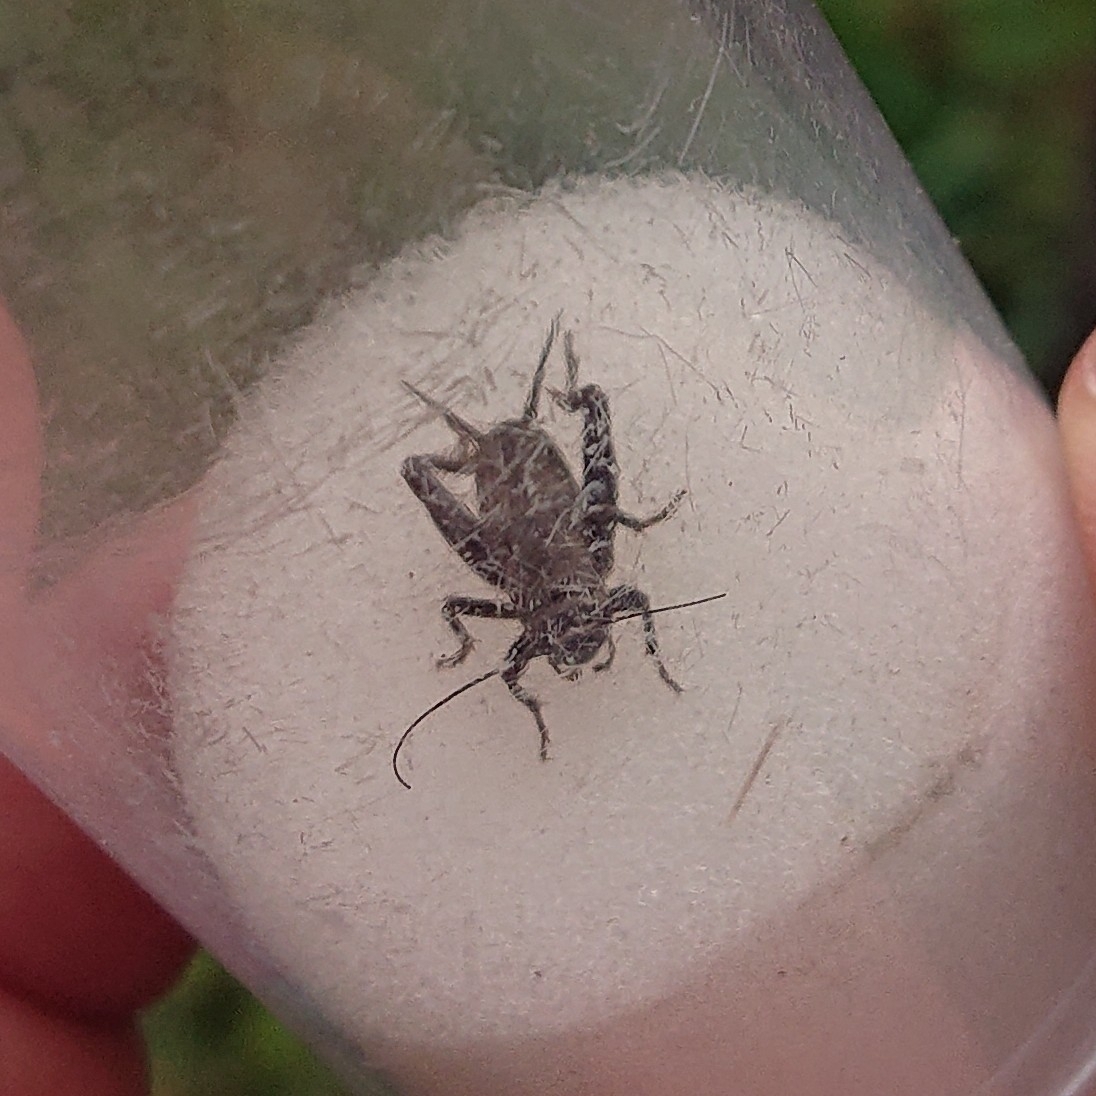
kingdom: Animalia
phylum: Arthropoda
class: Insecta
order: Orthoptera
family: Gryllidae
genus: Modicogryllus
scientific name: Modicogryllus frontalis
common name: Eastern cricket
